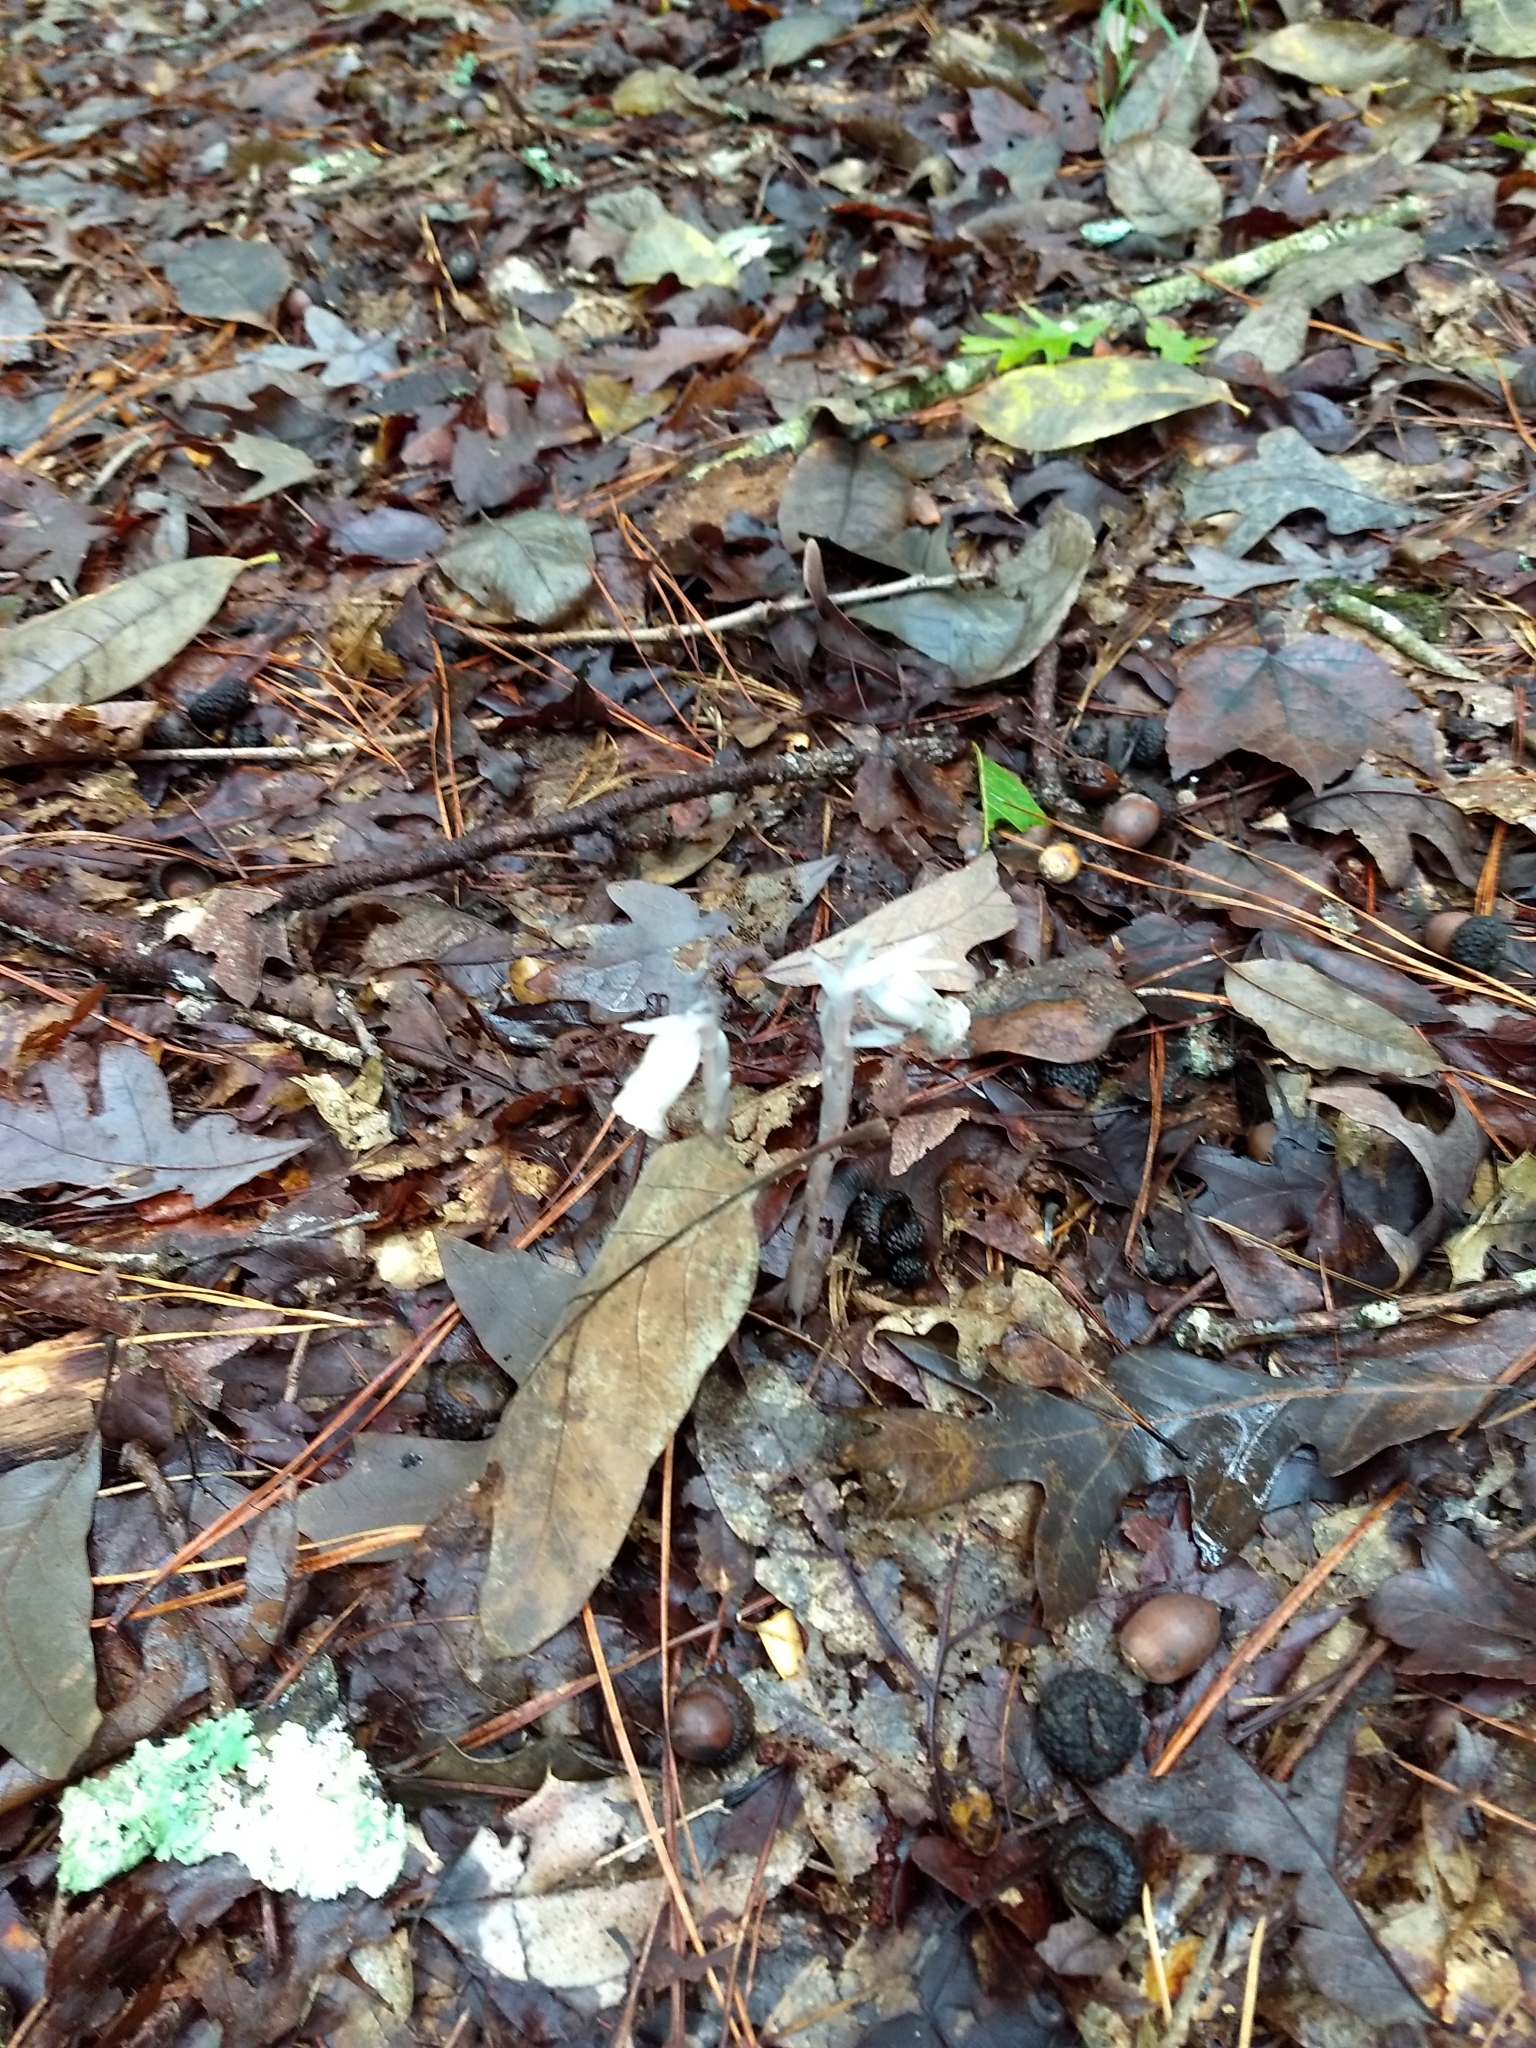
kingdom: Plantae
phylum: Tracheophyta
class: Magnoliopsida
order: Ericales
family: Ericaceae
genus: Monotropa
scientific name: Monotropa uniflora
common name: Convulsion root
